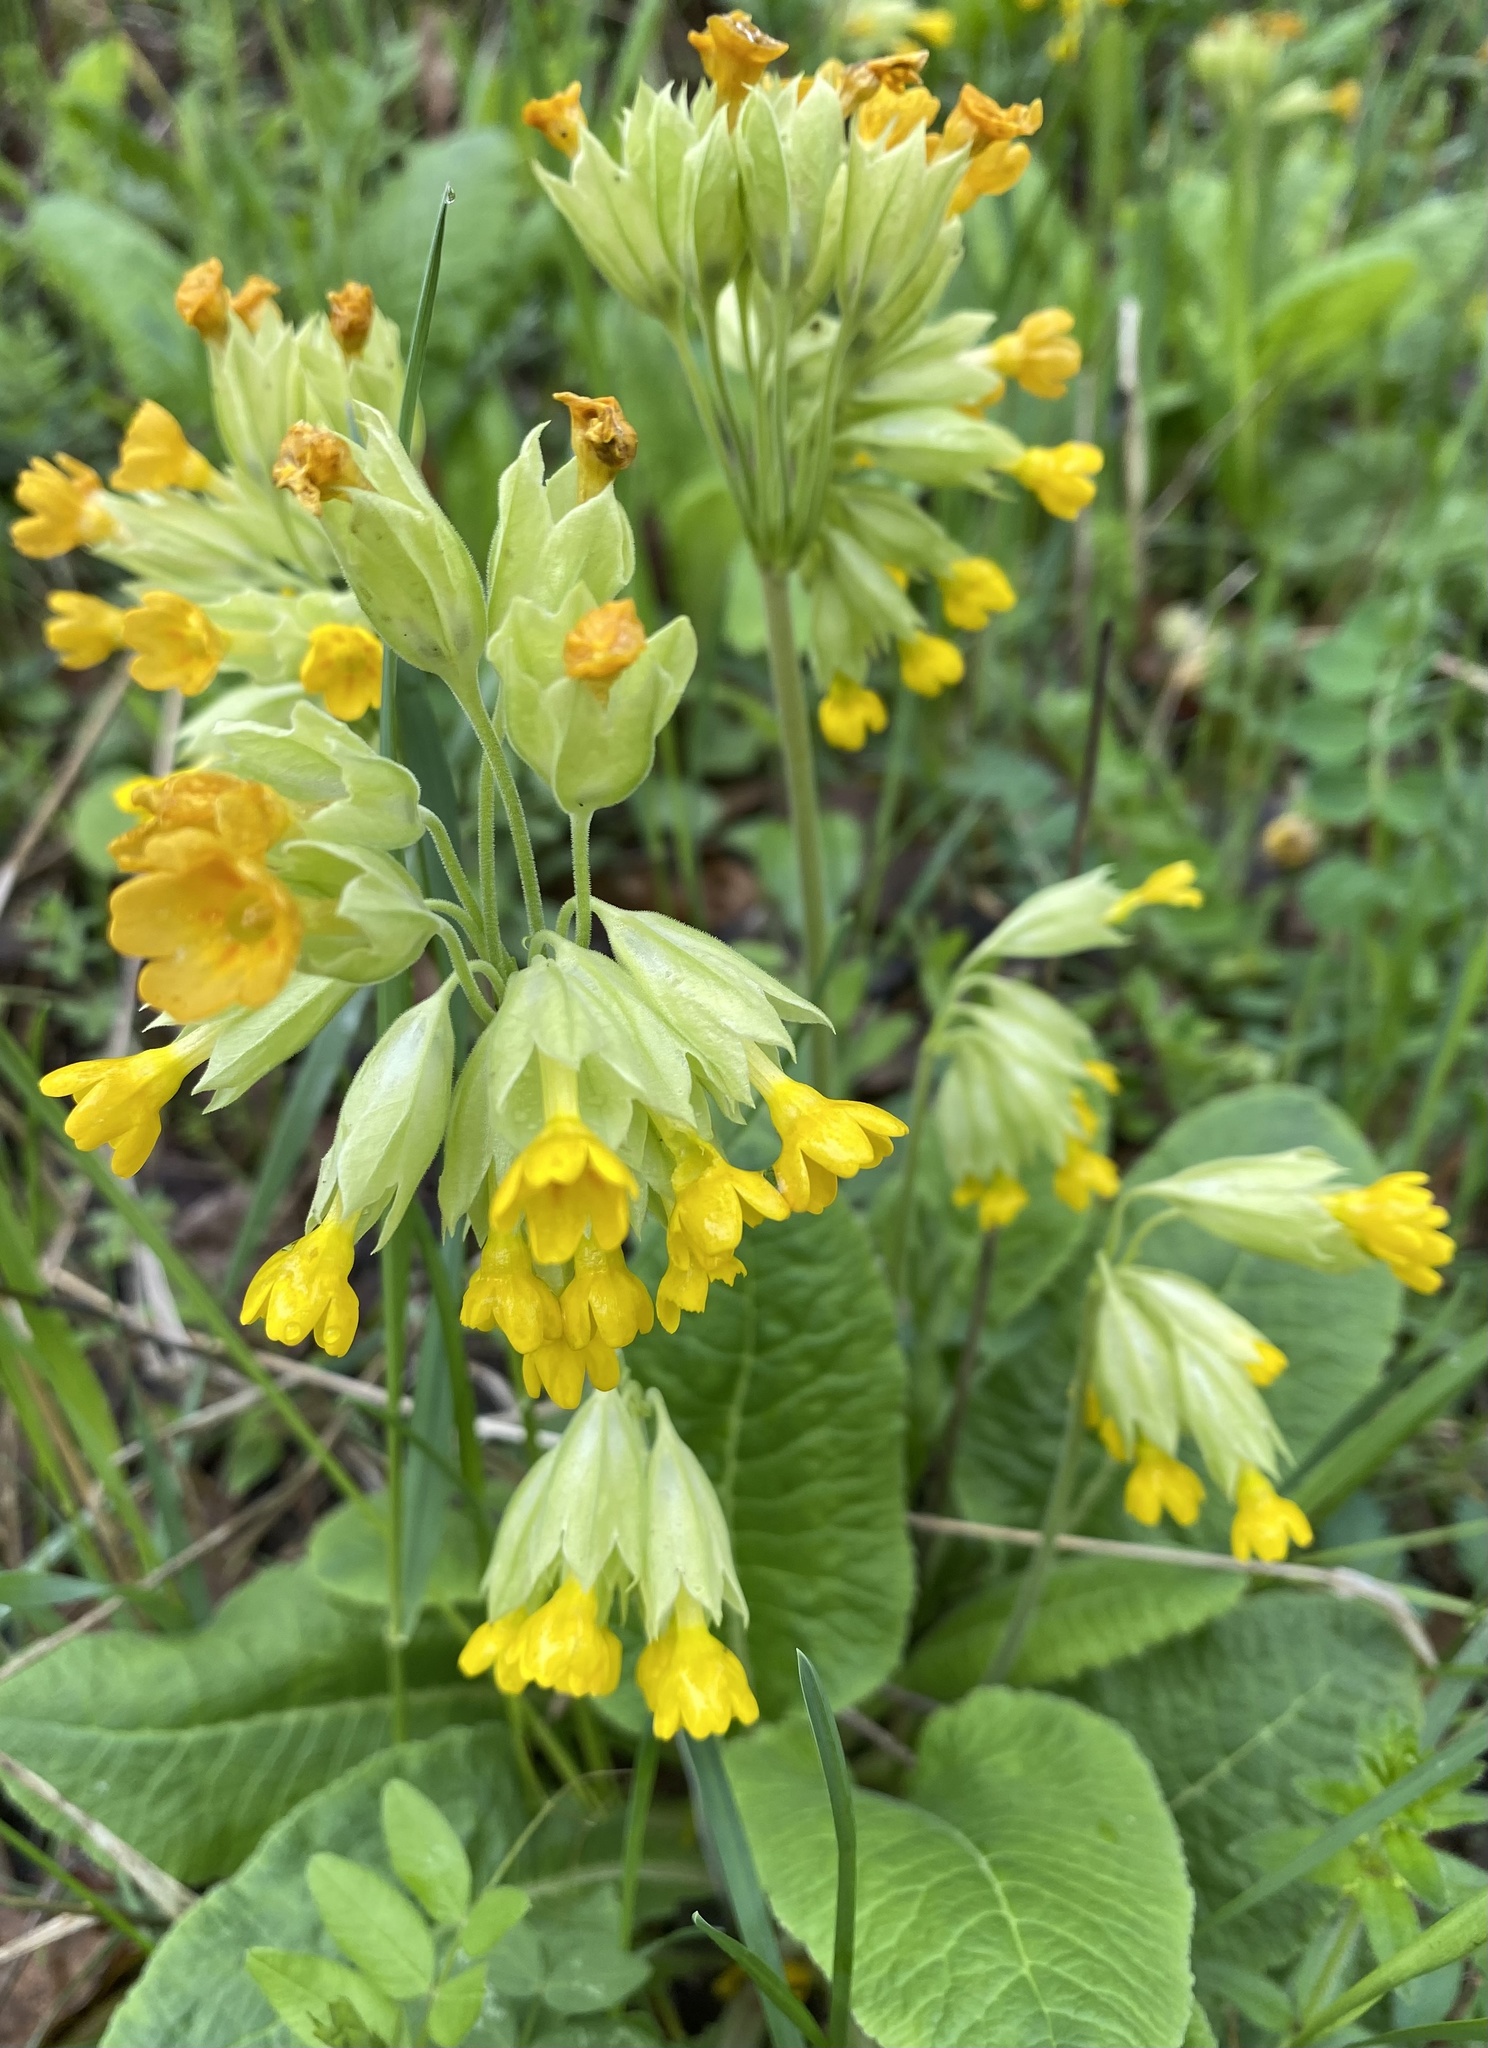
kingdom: Plantae
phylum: Tracheophyta
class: Magnoliopsida
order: Ericales
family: Primulaceae
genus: Primula
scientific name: Primula veris
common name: Cowslip
